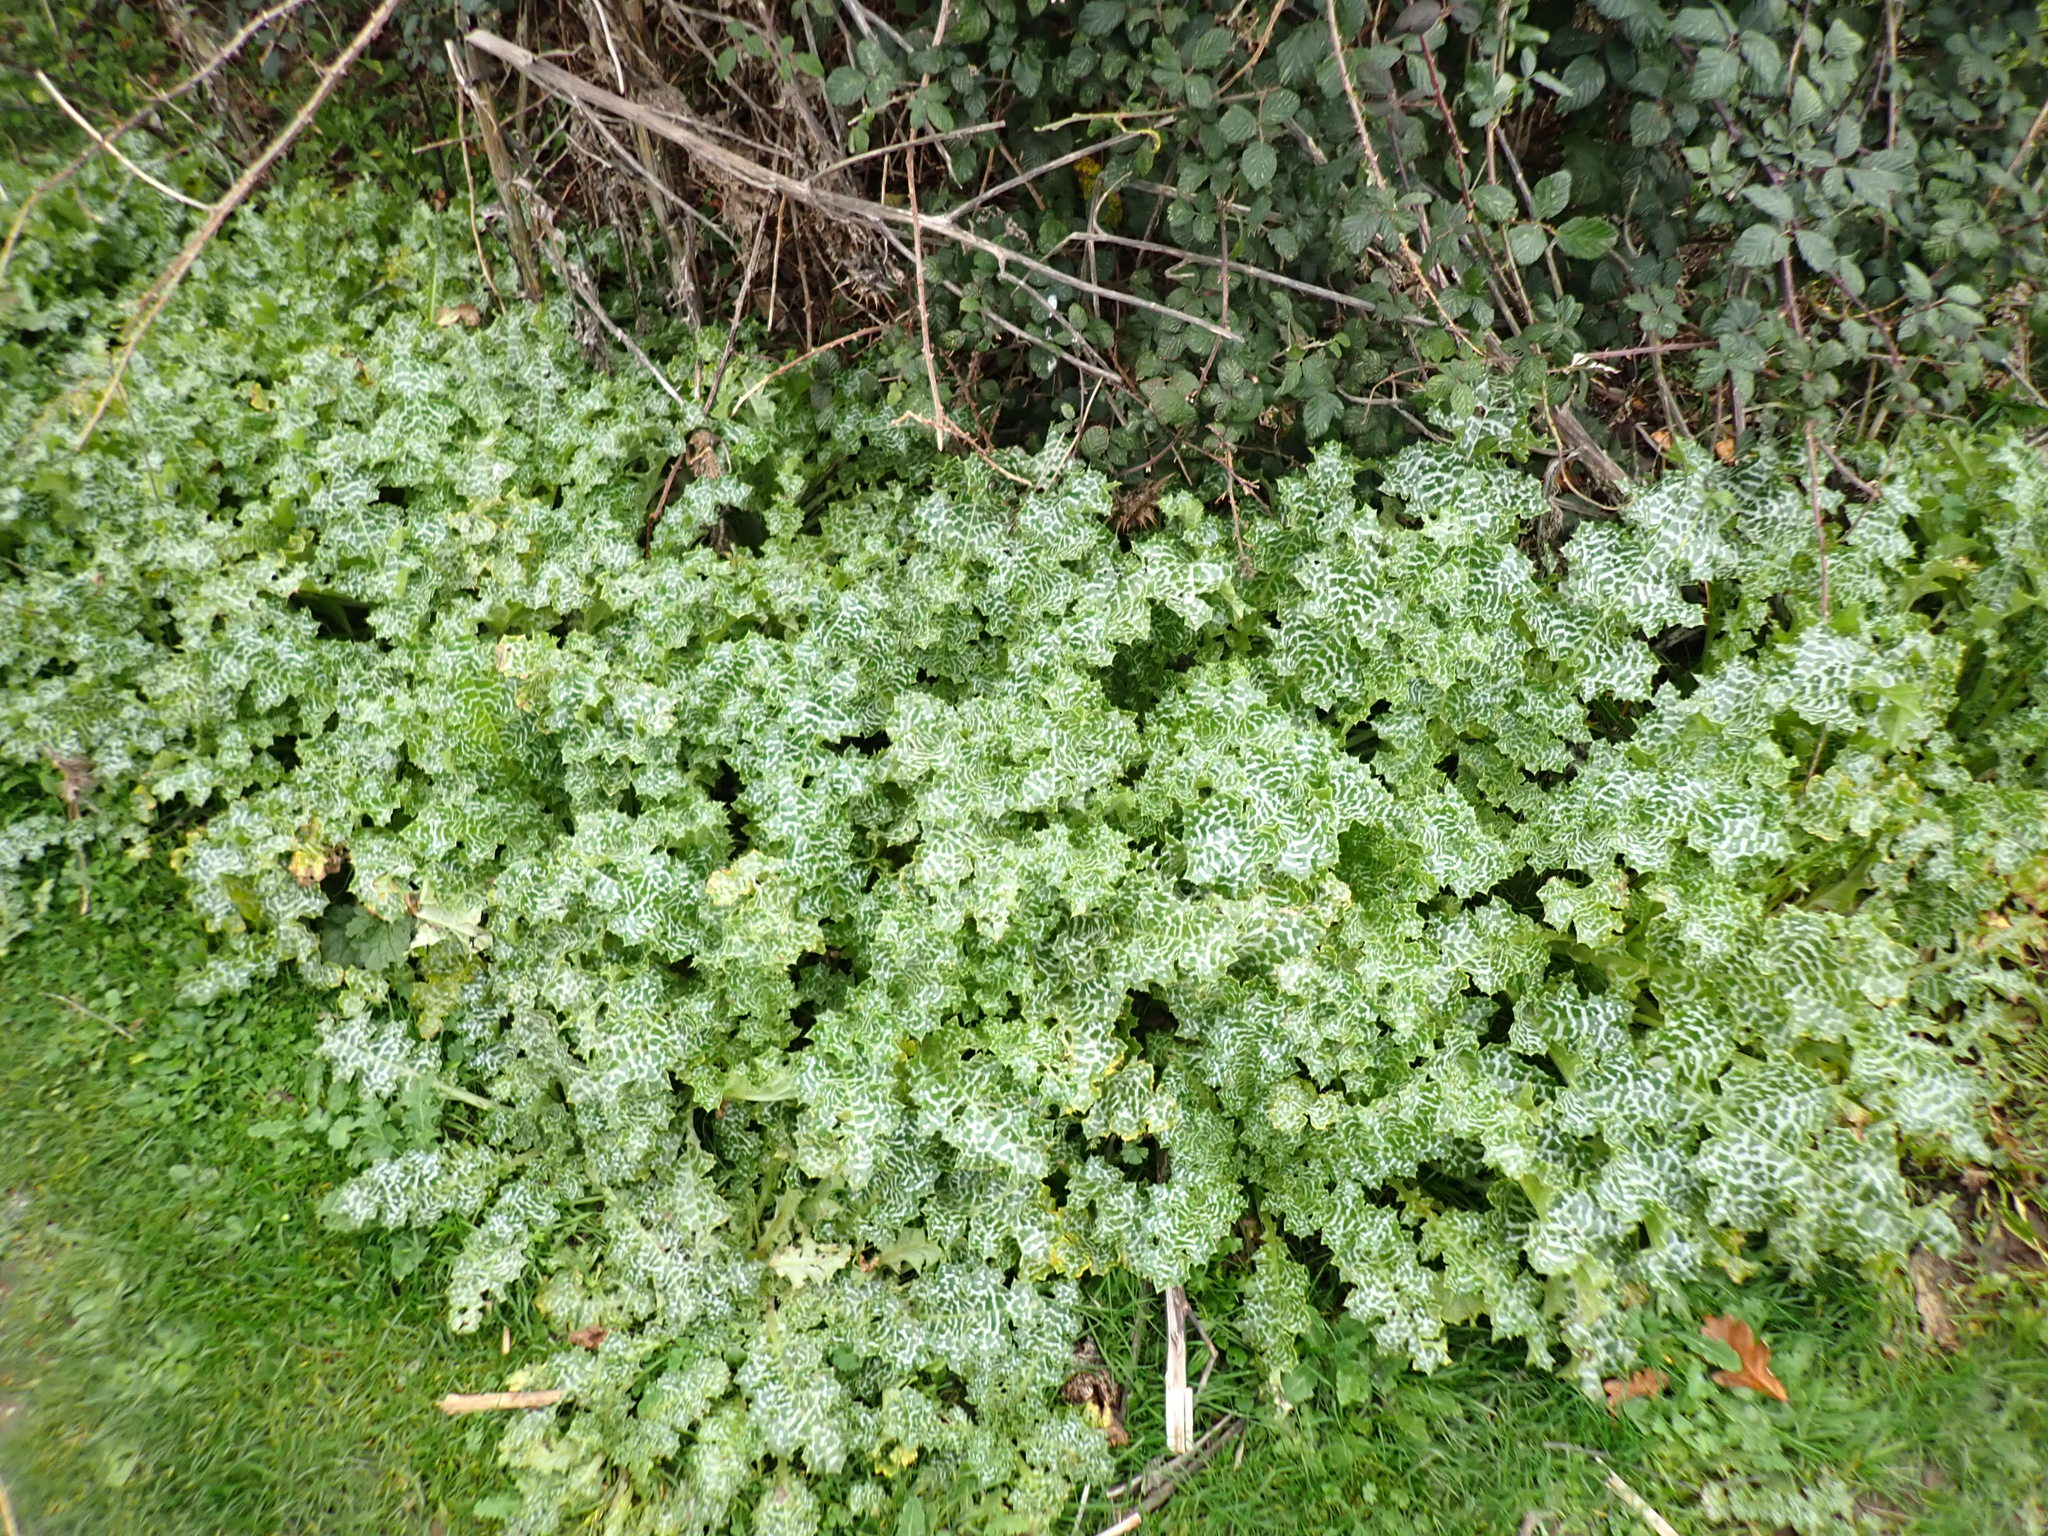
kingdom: Plantae
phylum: Tracheophyta
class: Magnoliopsida
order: Asterales
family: Asteraceae
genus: Silybum
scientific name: Silybum marianum
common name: Milk thistle
